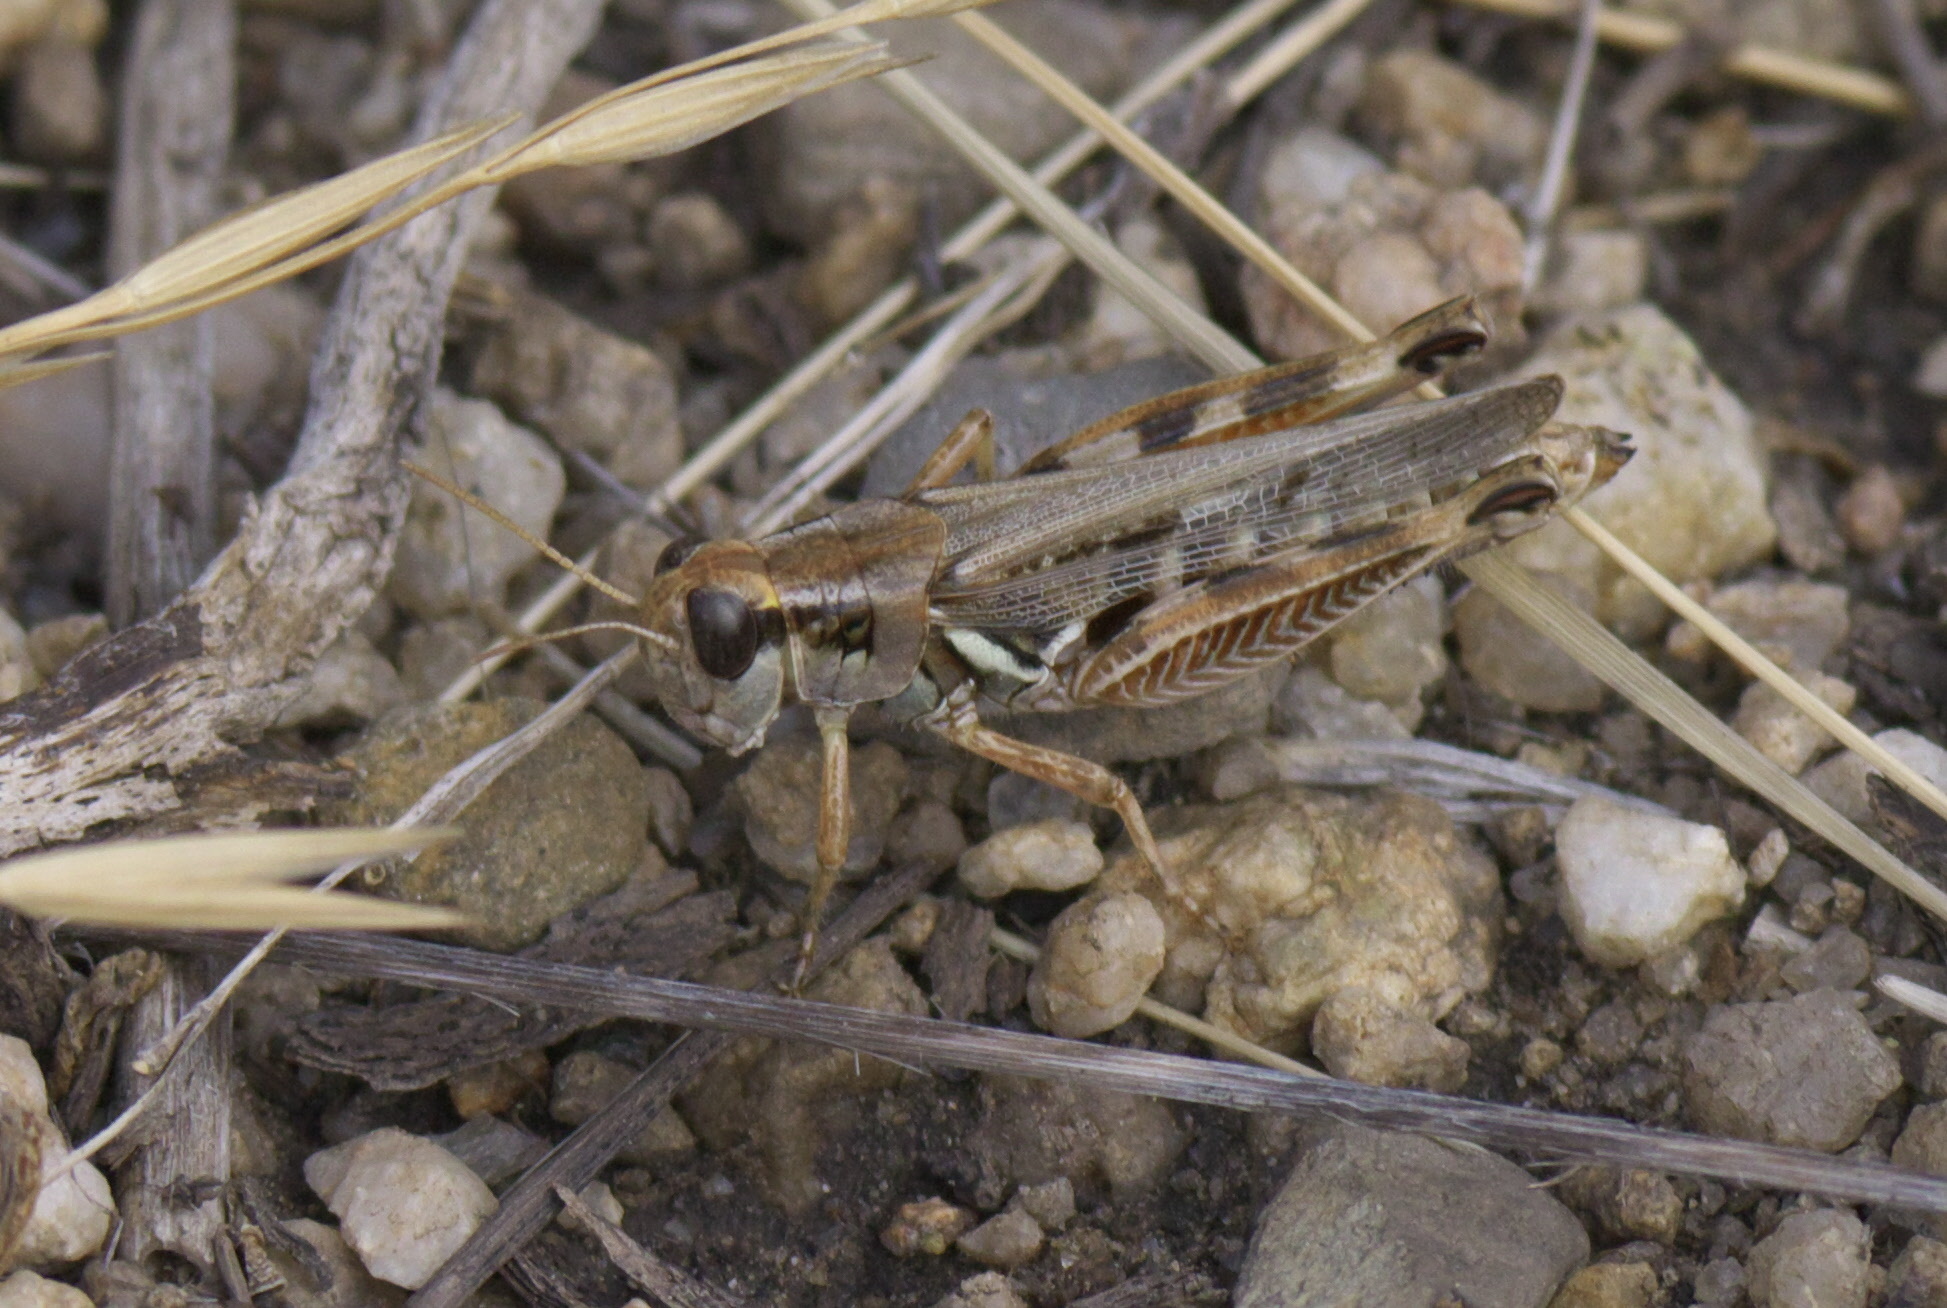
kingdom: Animalia
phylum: Arthropoda
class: Insecta
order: Orthoptera
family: Acrididae
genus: Melanoplus
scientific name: Melanoplus sanguinipes
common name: Migratory grasshopper
